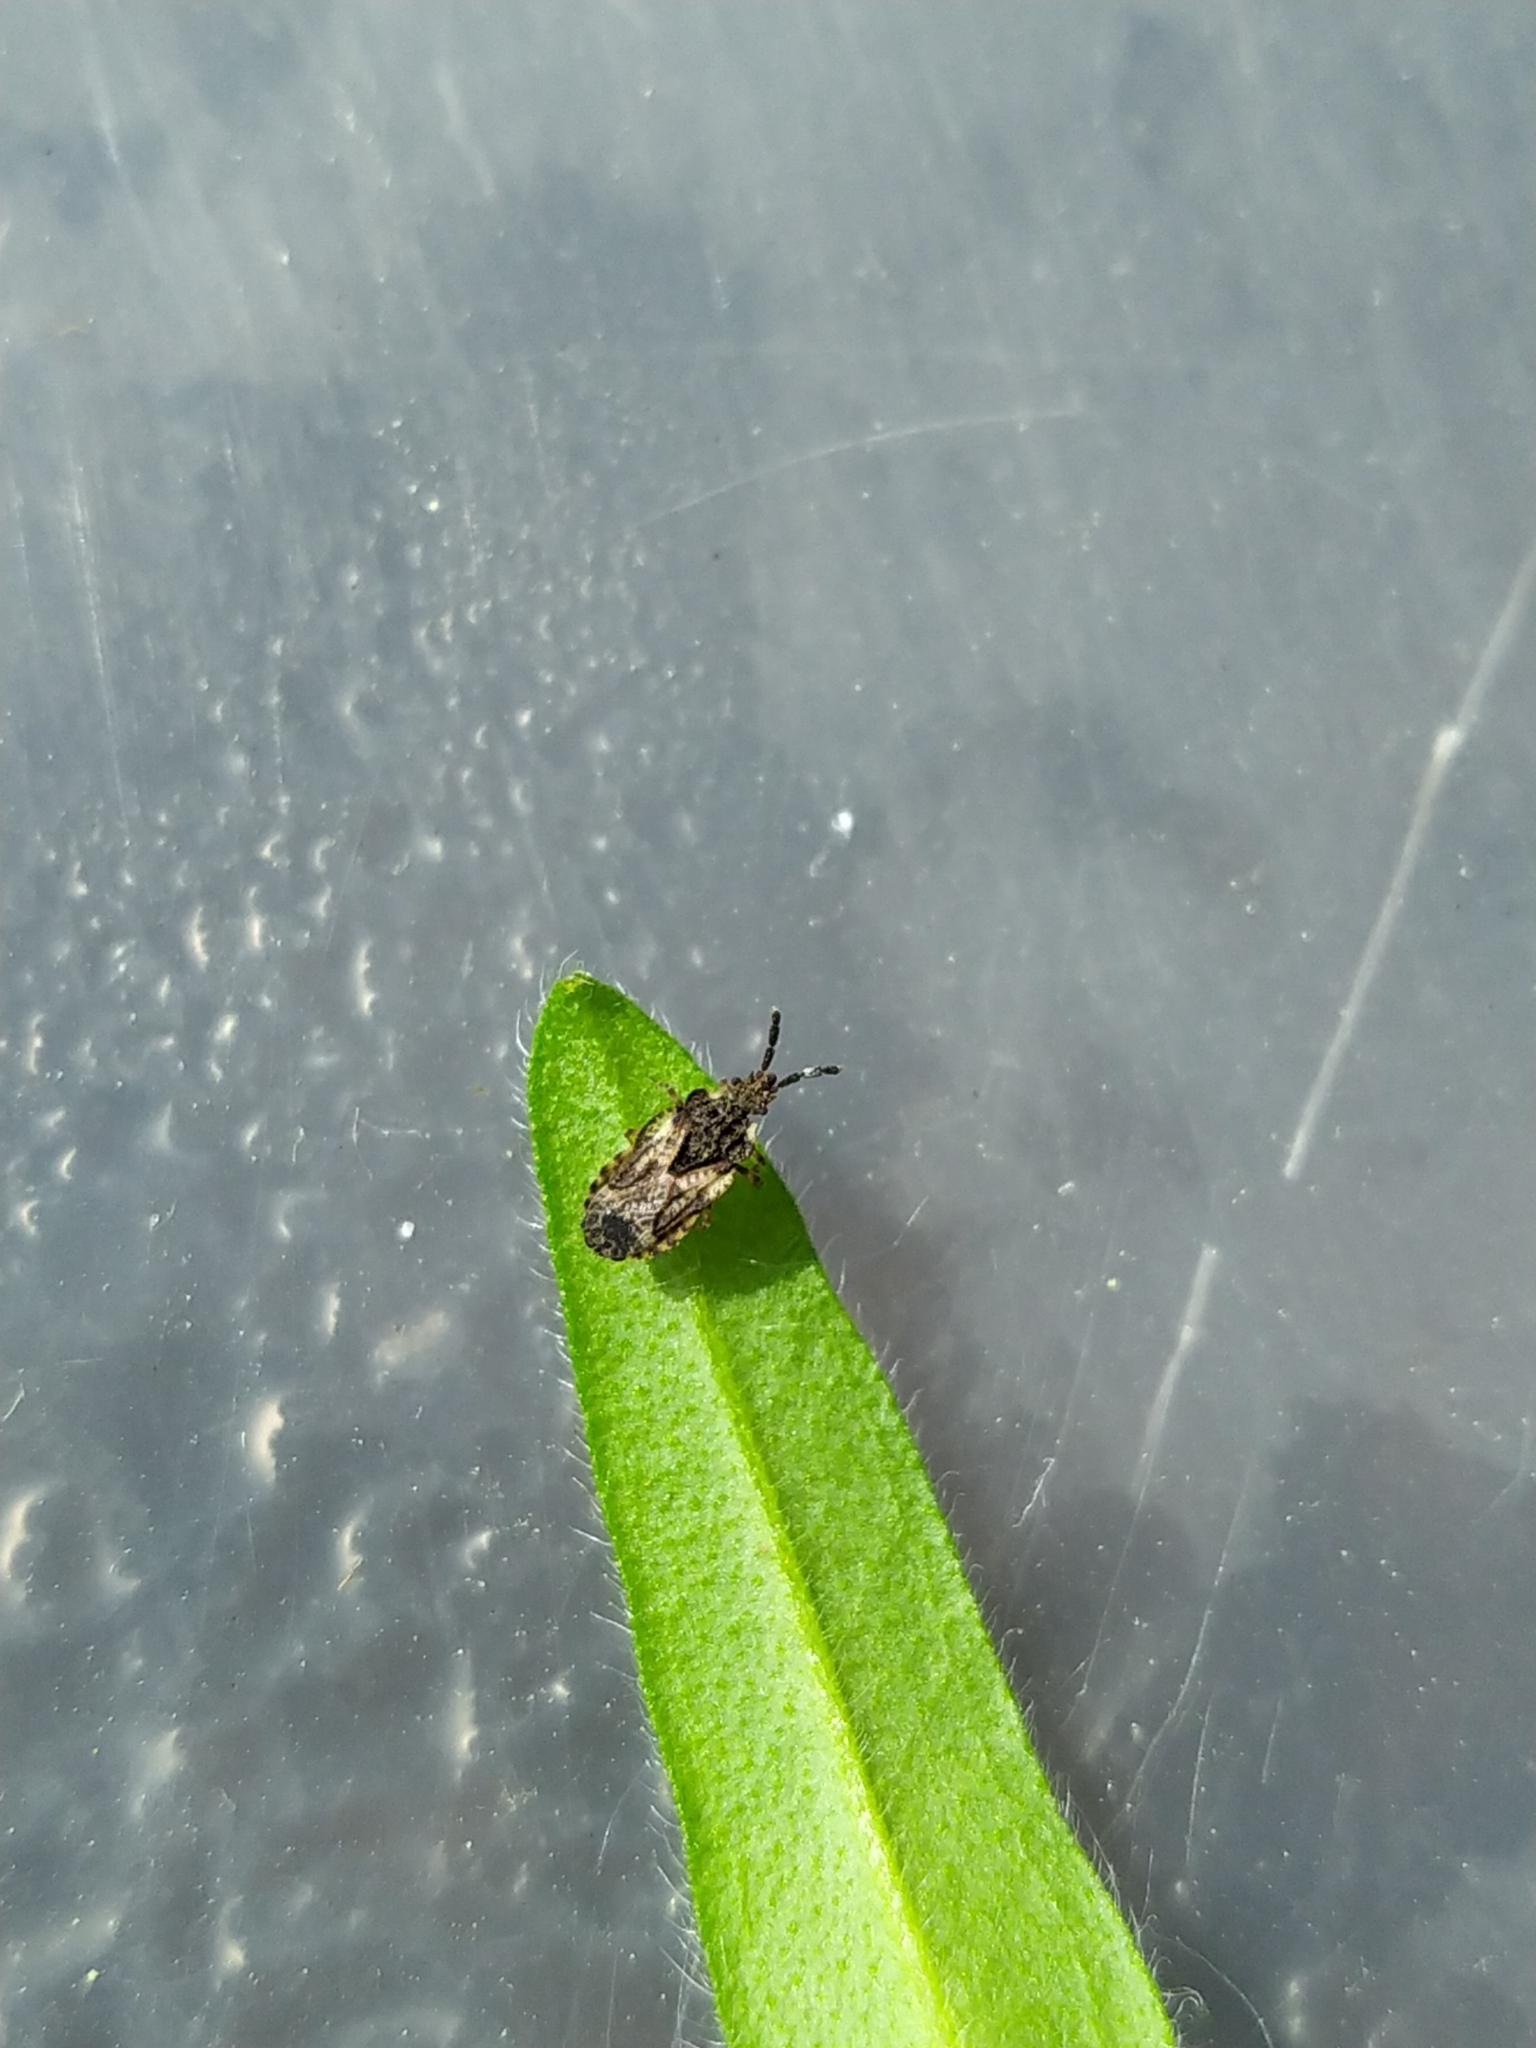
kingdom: Animalia
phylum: Arthropoda
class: Insecta
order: Hemiptera
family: Aradidae
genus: Aradus
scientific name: Aradus depressus
